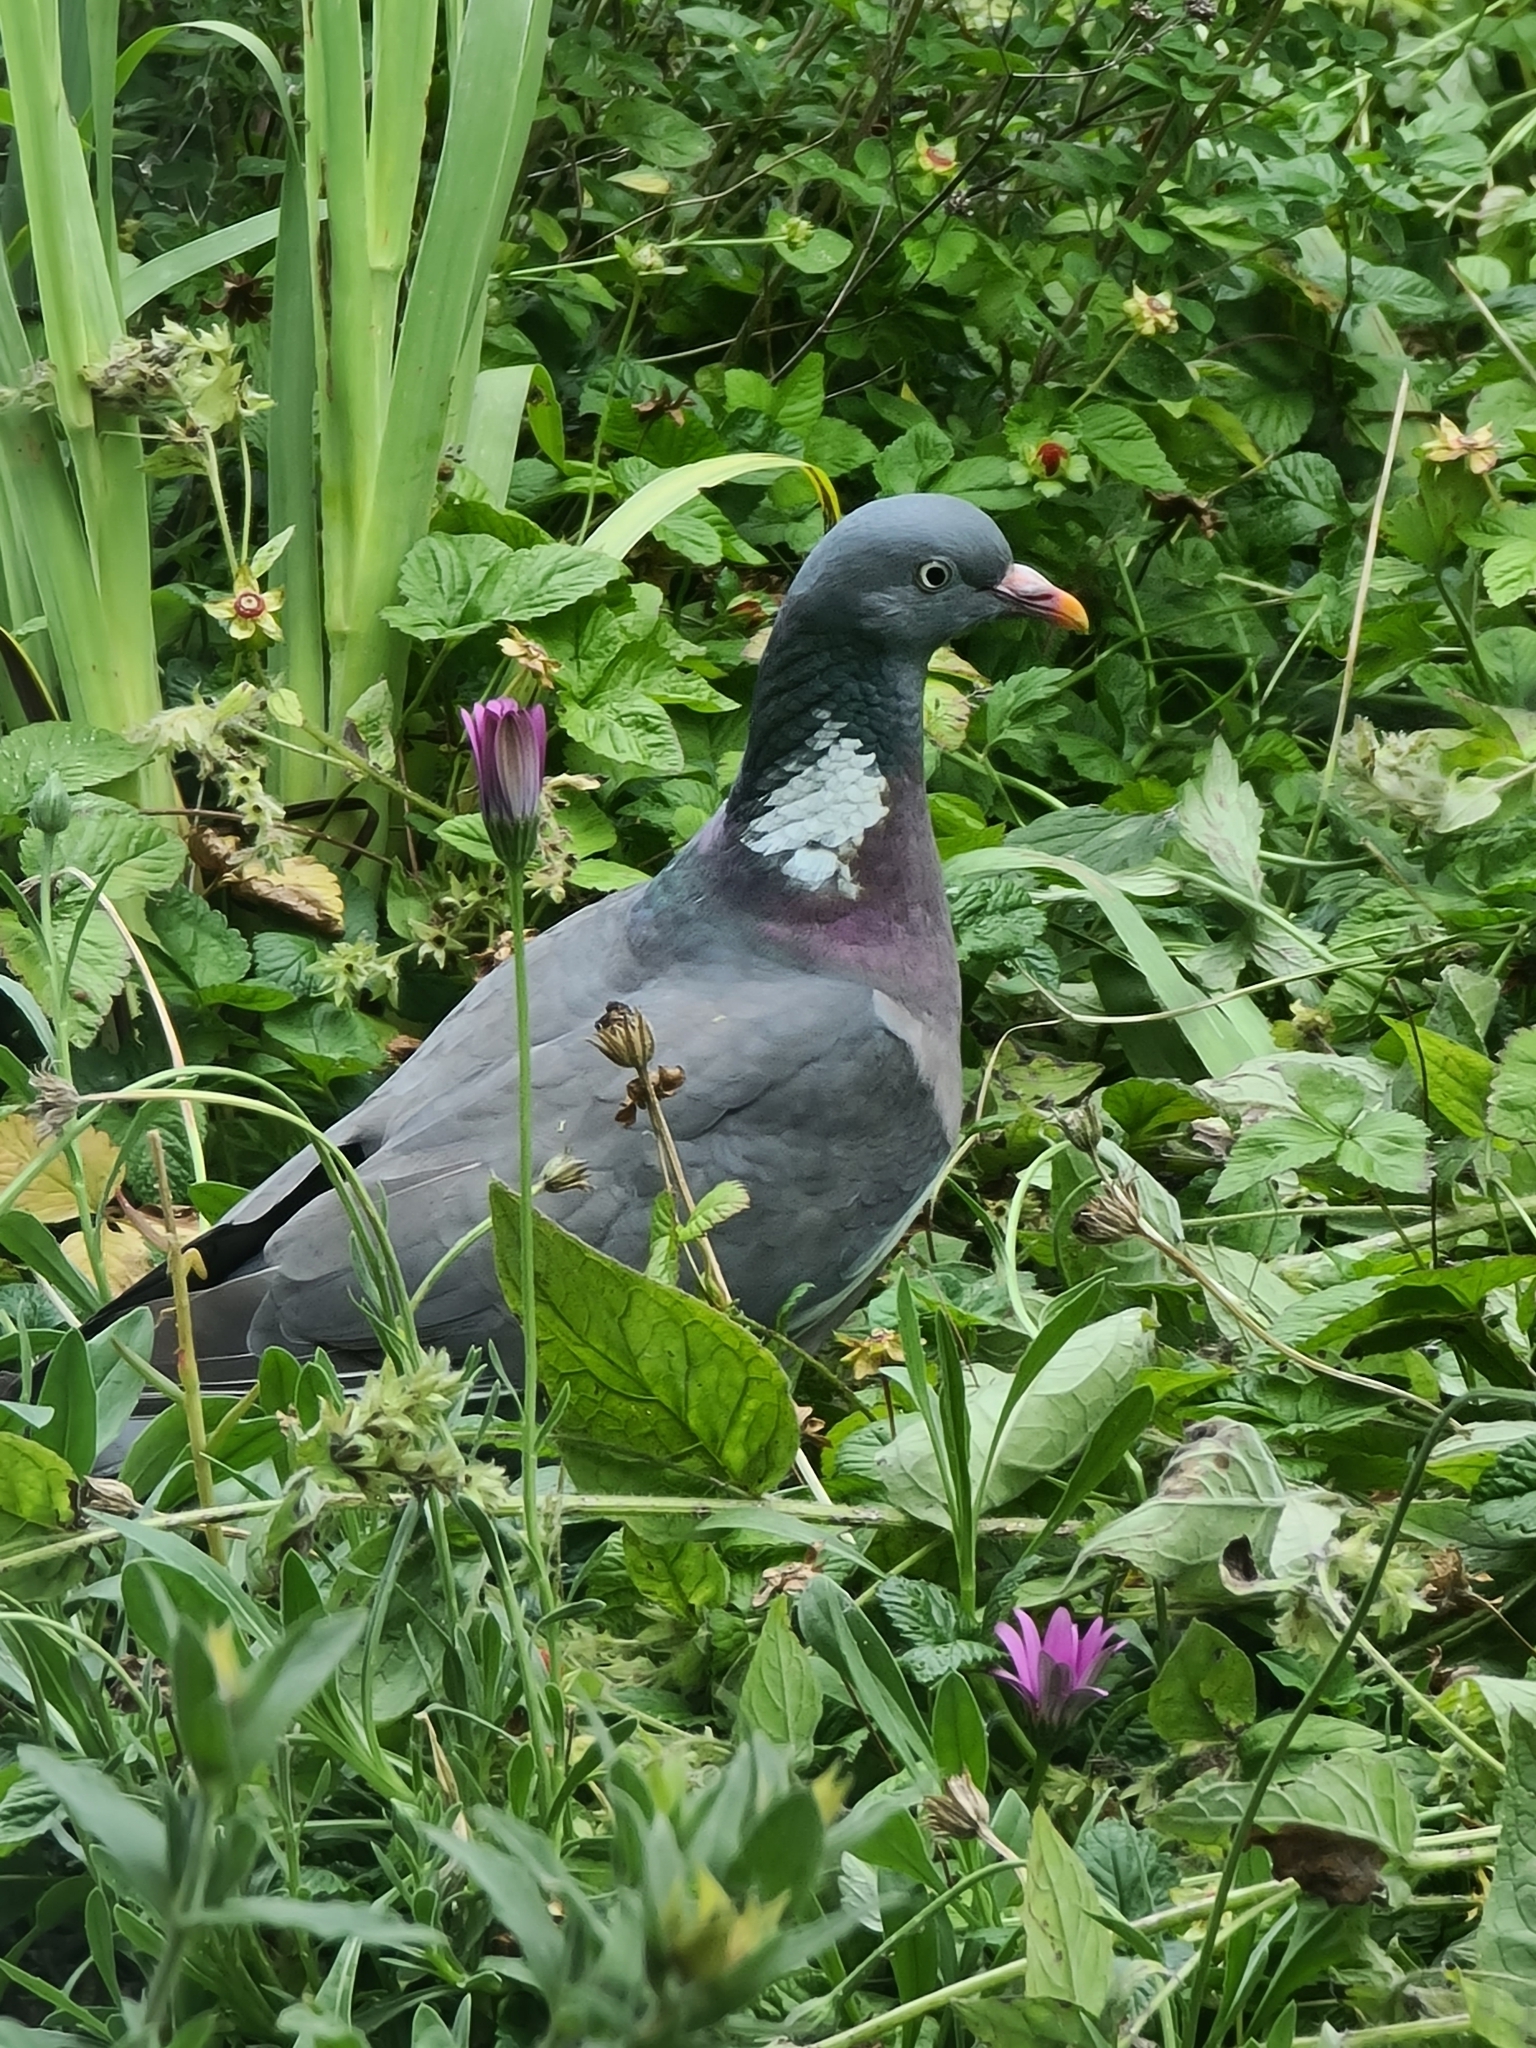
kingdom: Animalia
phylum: Chordata
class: Aves
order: Columbiformes
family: Columbidae
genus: Columba
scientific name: Columba palumbus
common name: Common wood pigeon
